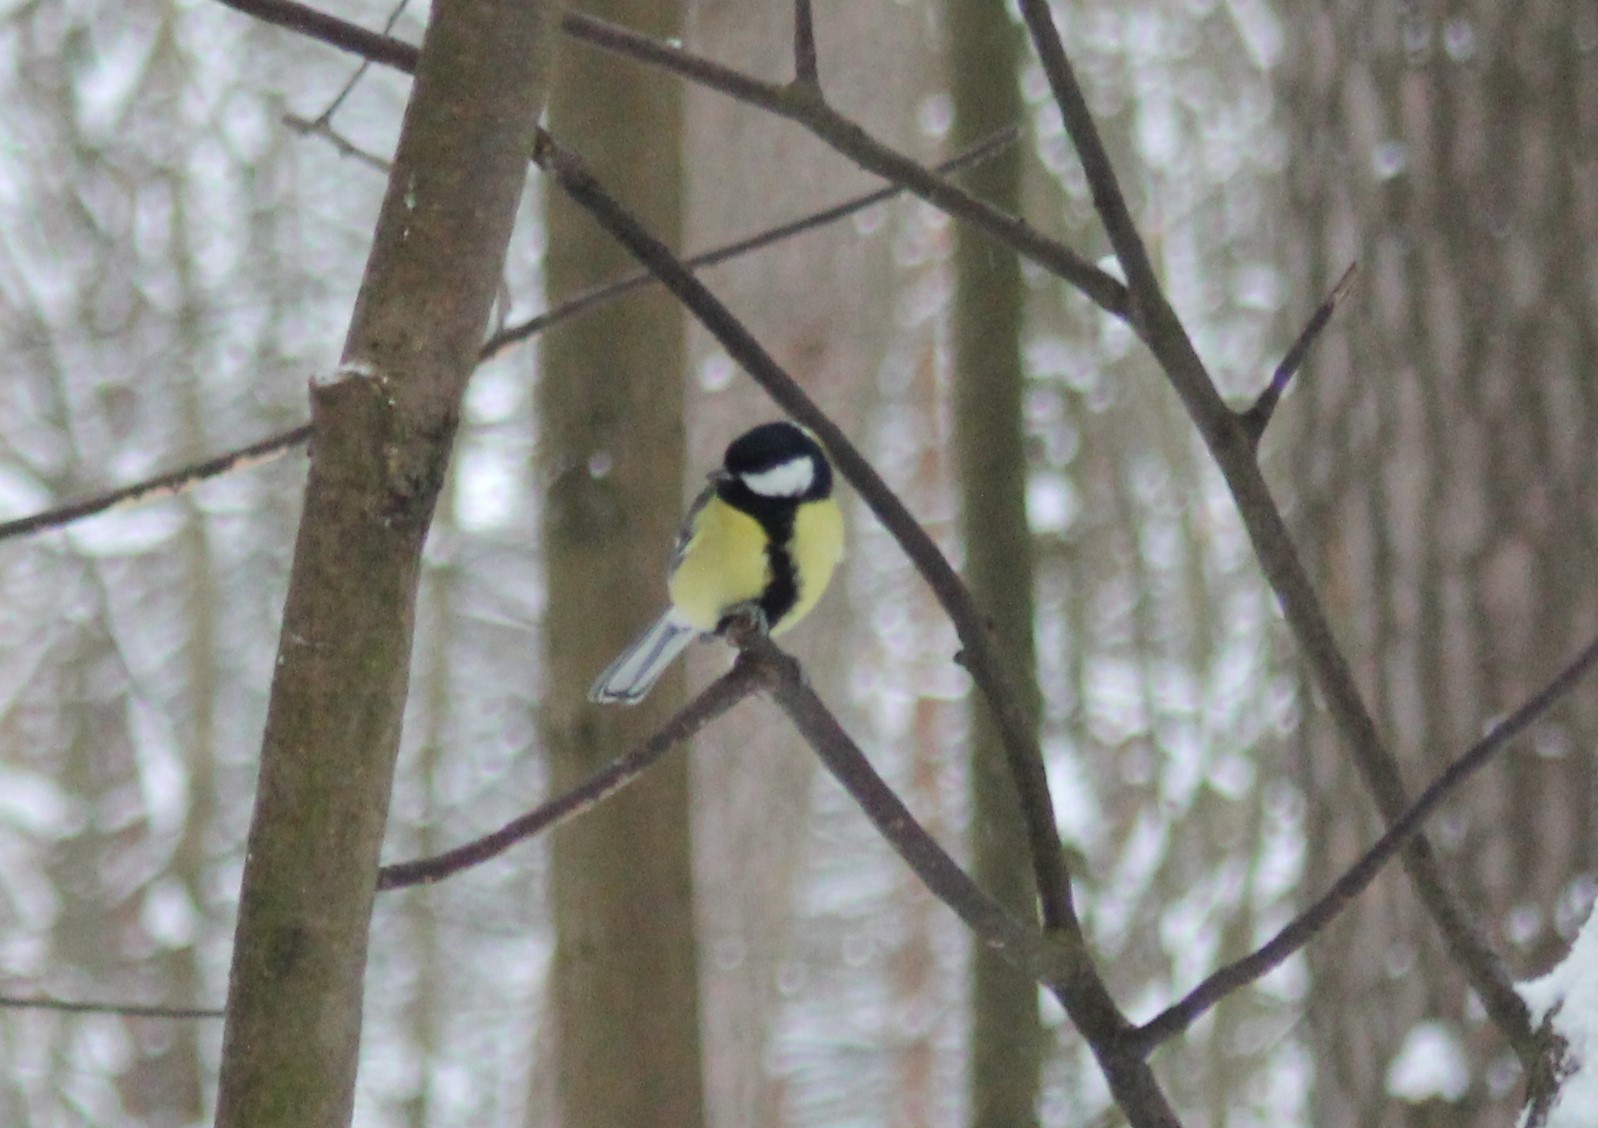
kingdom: Animalia
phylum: Chordata
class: Aves
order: Passeriformes
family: Paridae
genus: Parus
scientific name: Parus major
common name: Great tit
